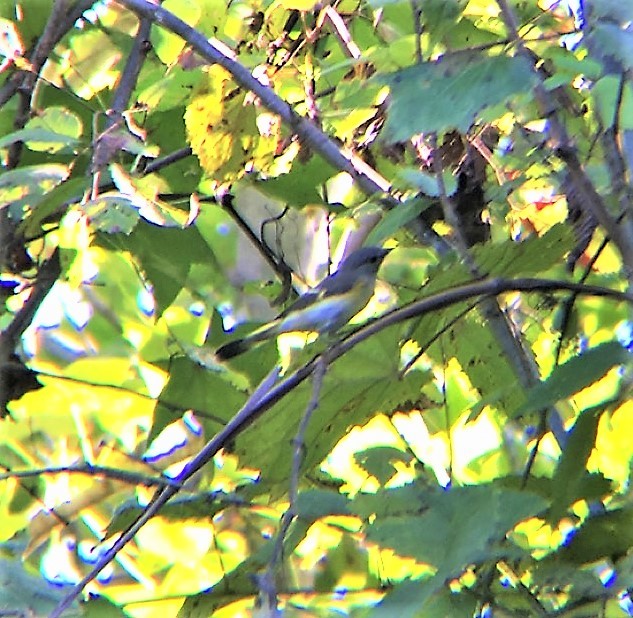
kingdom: Animalia
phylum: Chordata
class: Aves
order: Passeriformes
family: Parulidae
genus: Setophaga
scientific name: Setophaga ruticilla
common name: American redstart
